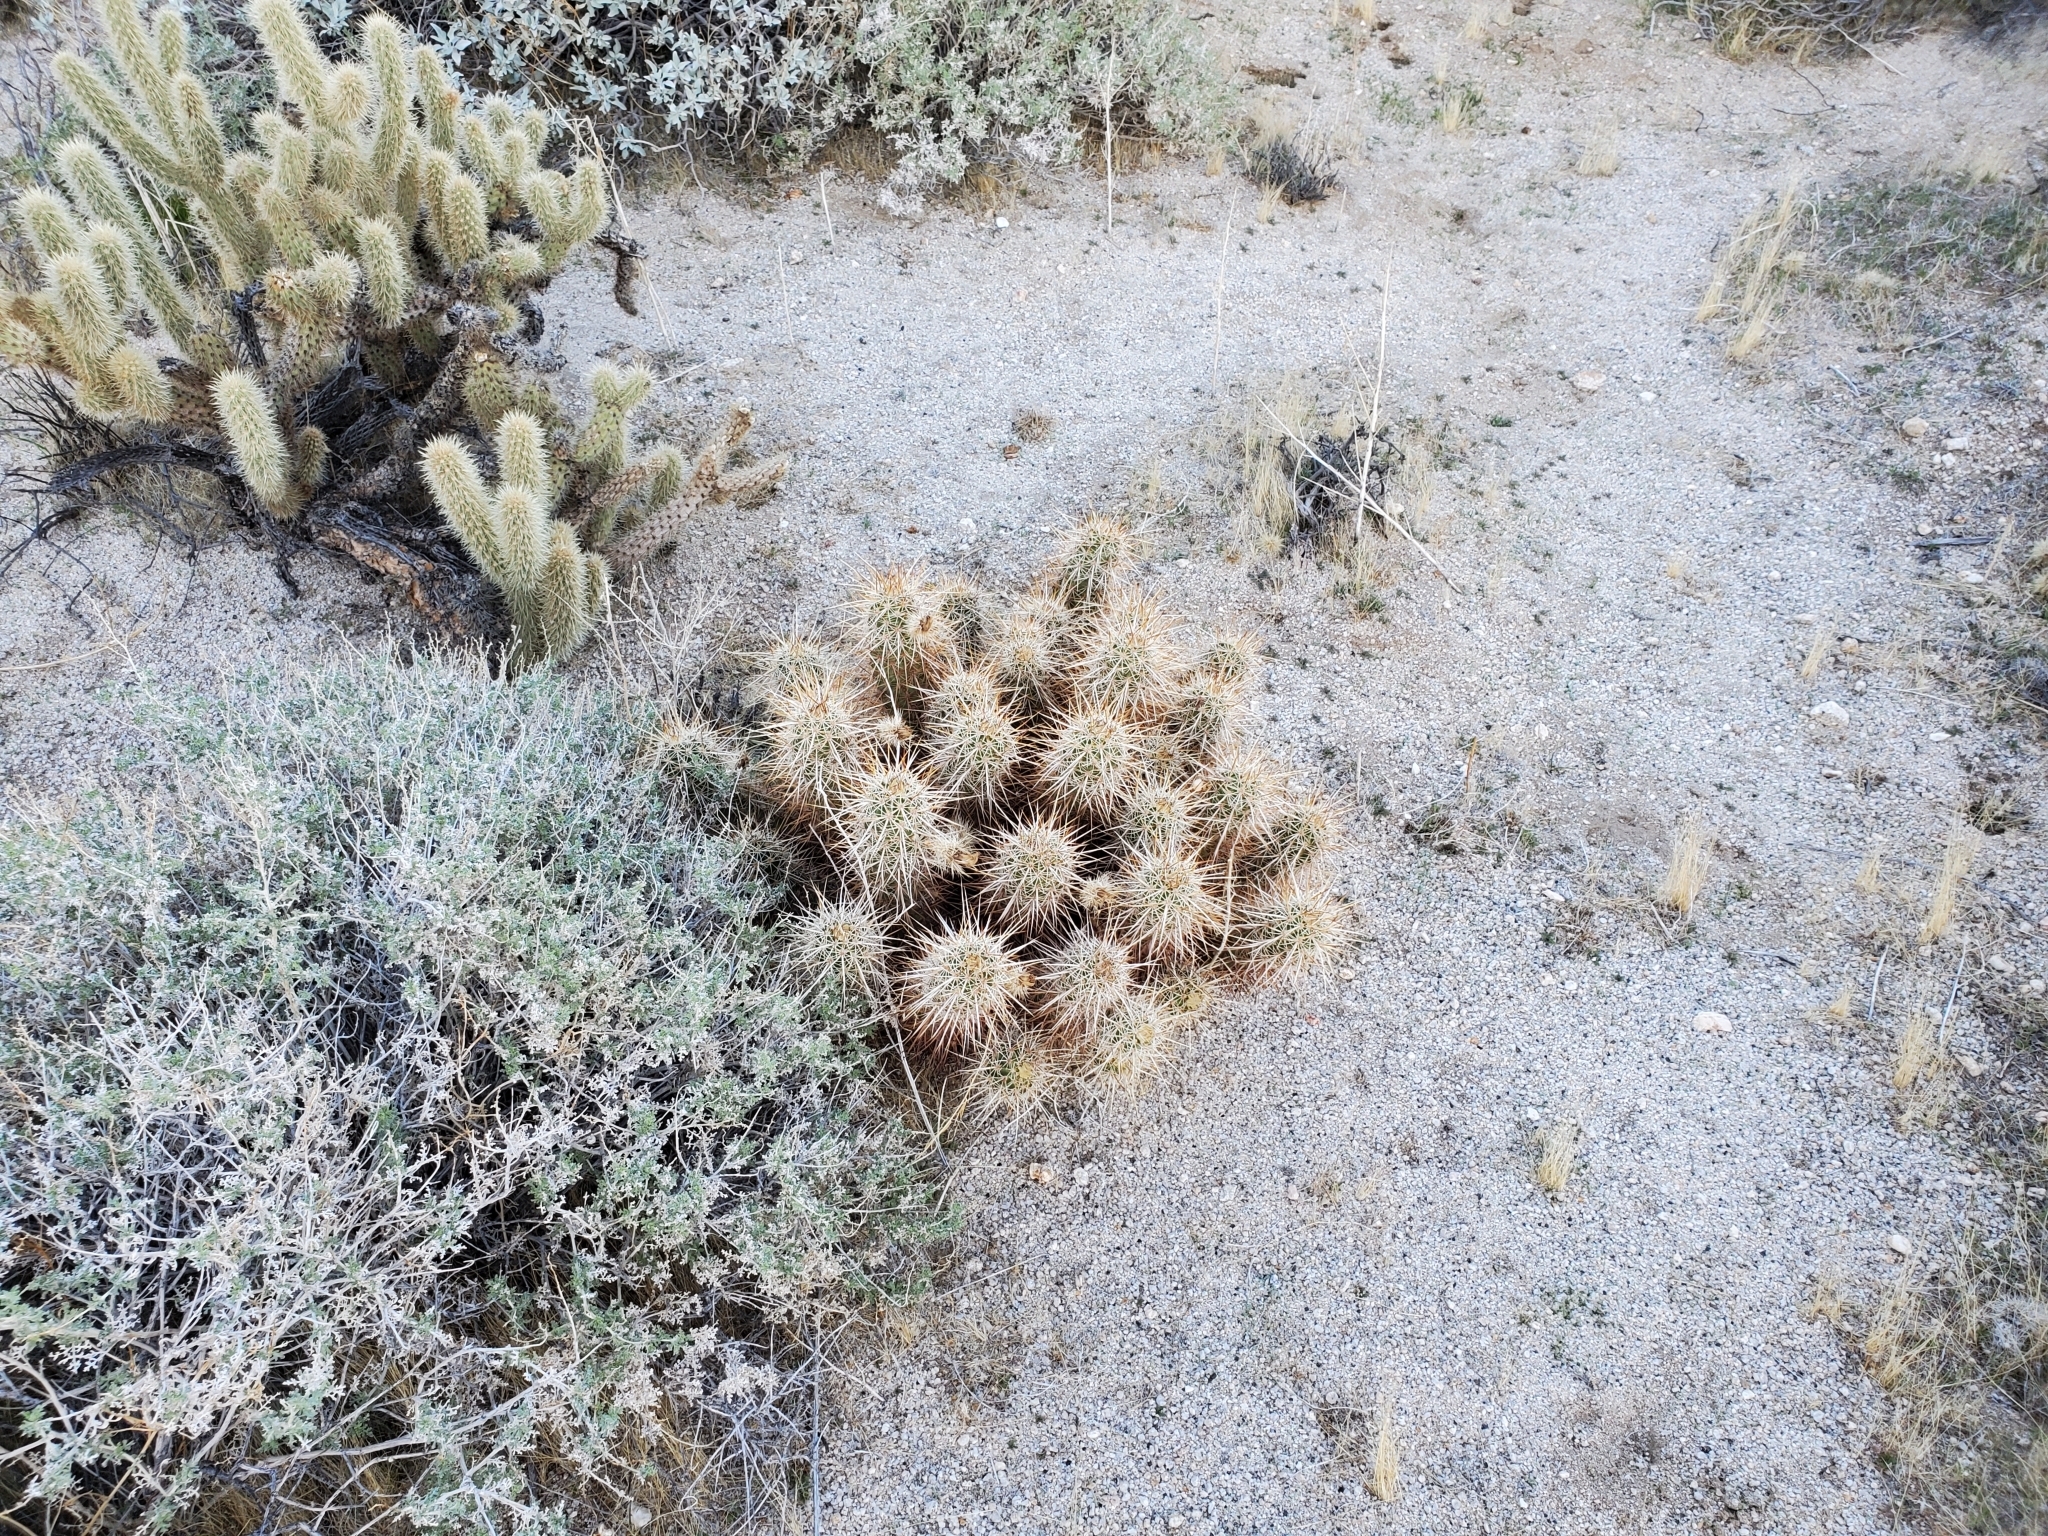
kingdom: Plantae
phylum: Tracheophyta
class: Magnoliopsida
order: Caryophyllales
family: Cactaceae
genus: Echinocereus
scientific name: Echinocereus engelmannii
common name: Engelmann's hedgehog cactus
